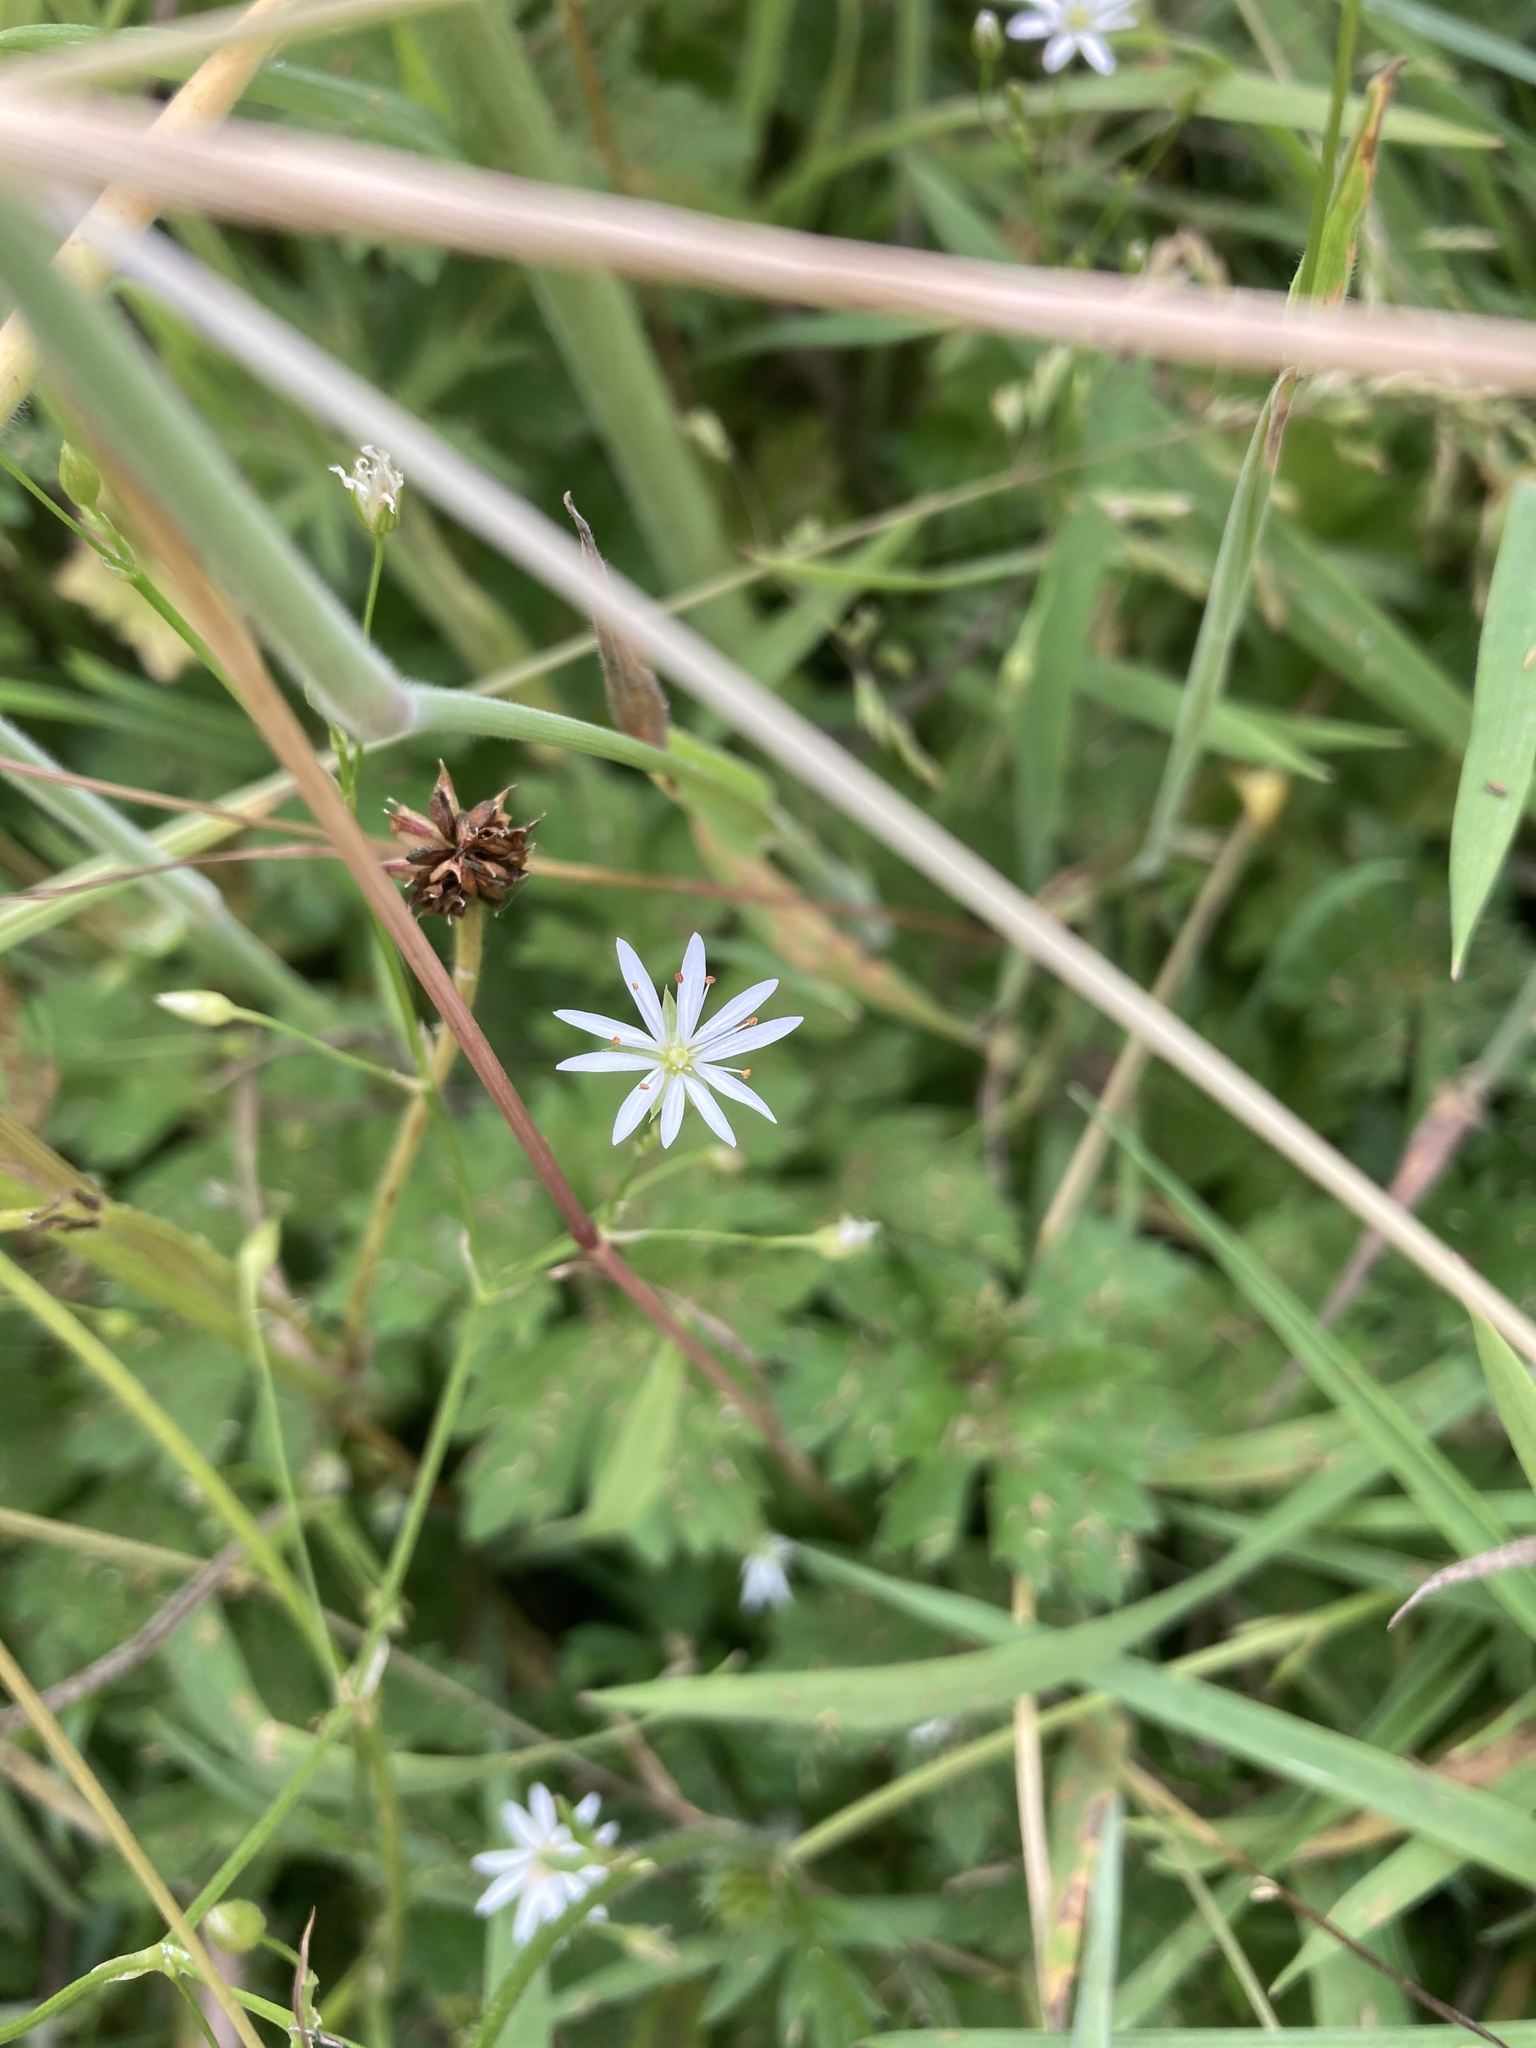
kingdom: Plantae
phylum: Tracheophyta
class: Magnoliopsida
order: Caryophyllales
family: Caryophyllaceae
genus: Stellaria
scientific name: Stellaria graminea
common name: Grass-like starwort
